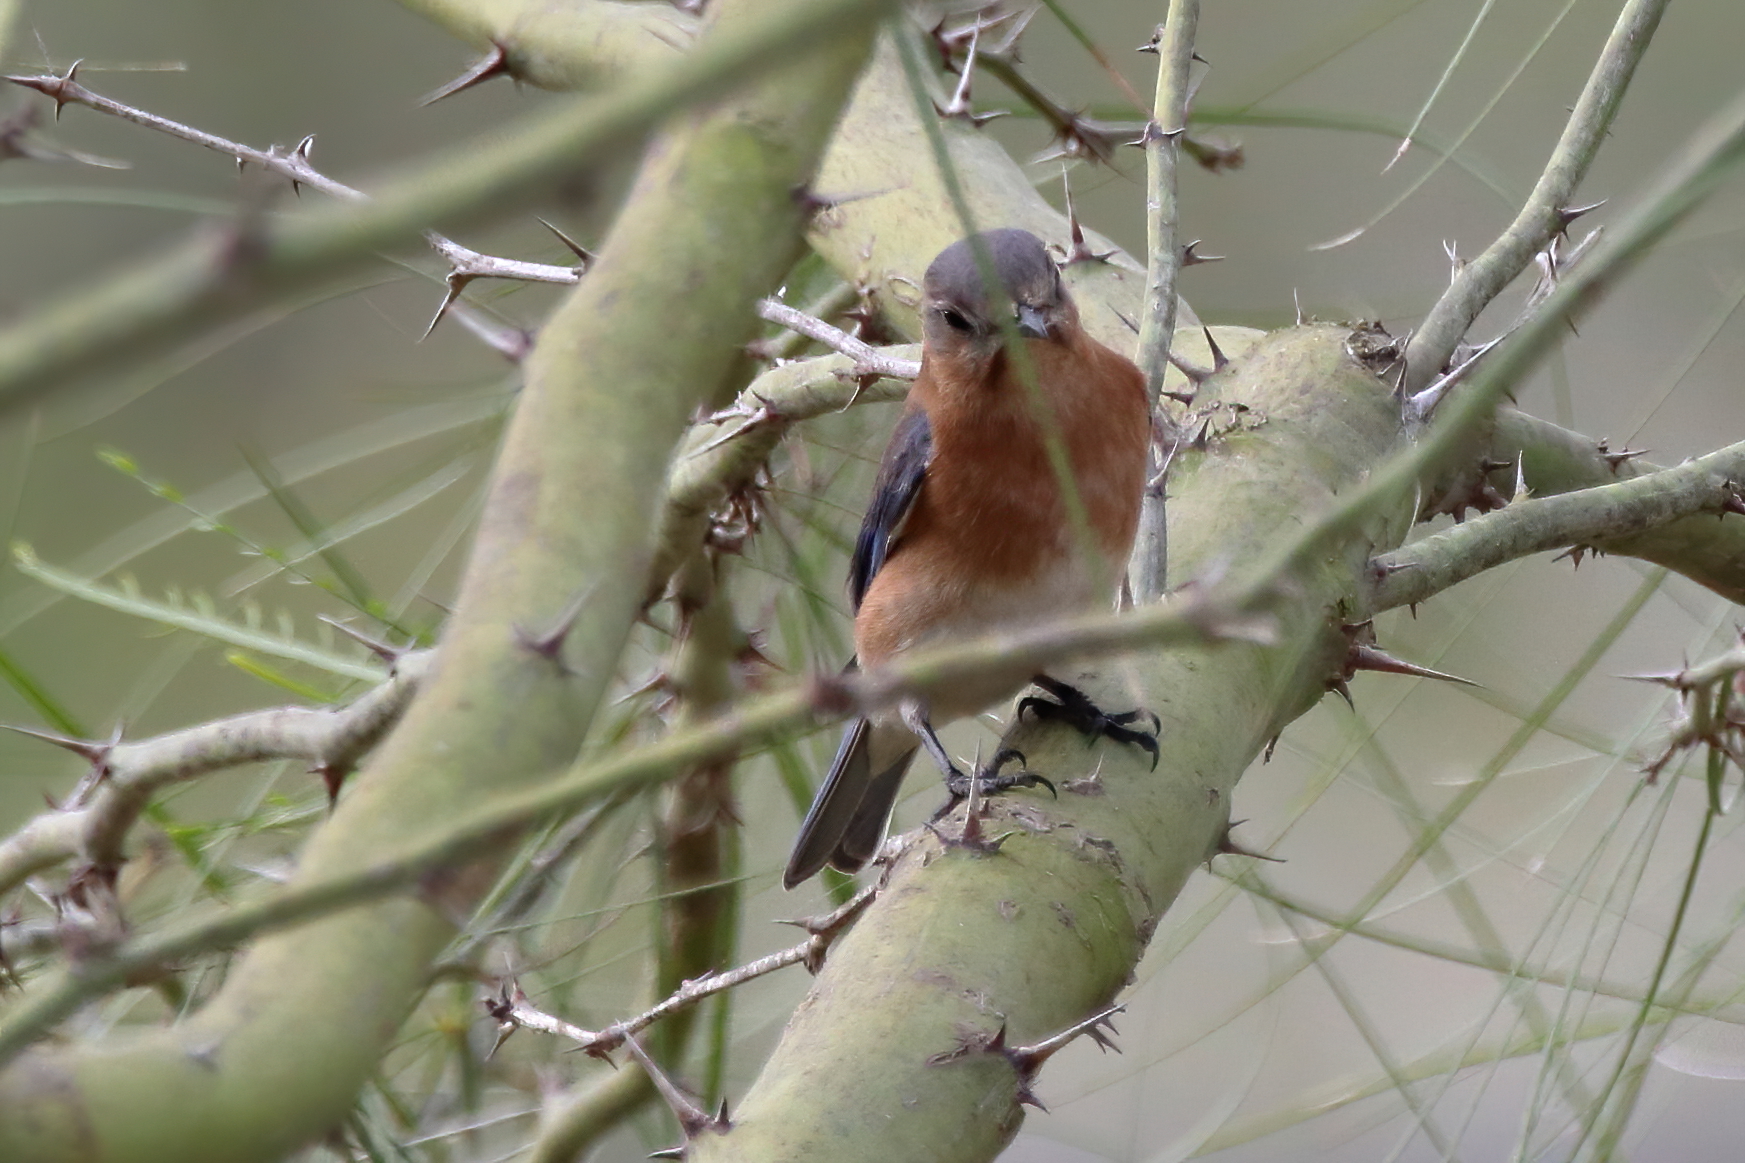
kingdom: Animalia
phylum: Chordata
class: Aves
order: Passeriformes
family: Turdidae
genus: Sialia
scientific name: Sialia sialis
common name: Eastern bluebird
